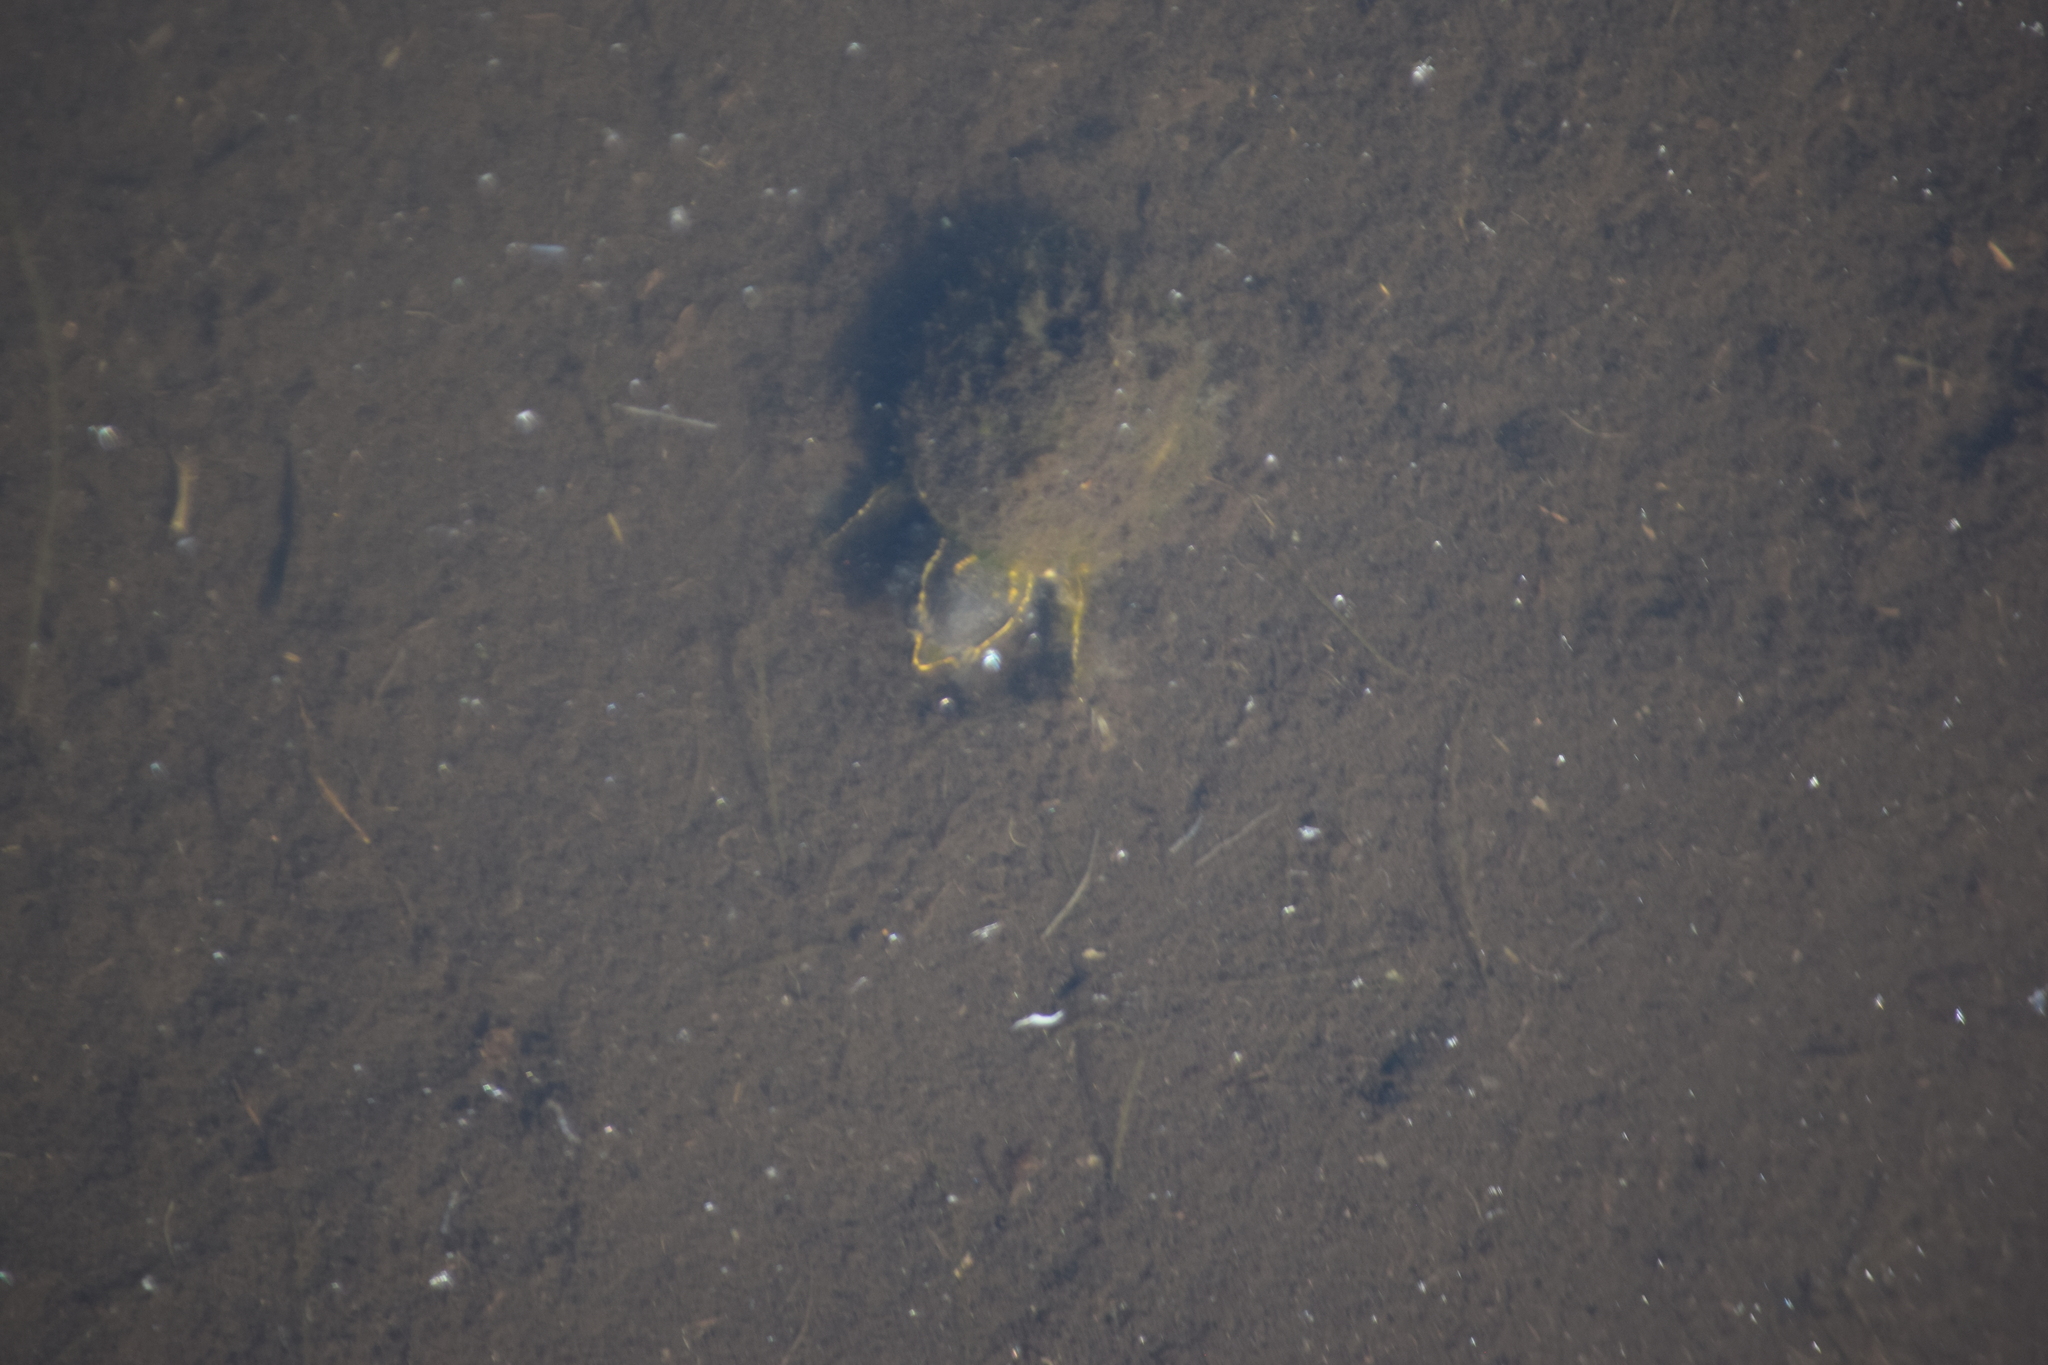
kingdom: Animalia
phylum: Chordata
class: Testudines
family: Kinosternidae
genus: Sternotherus
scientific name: Sternotherus odoratus
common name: Common musk turtle
